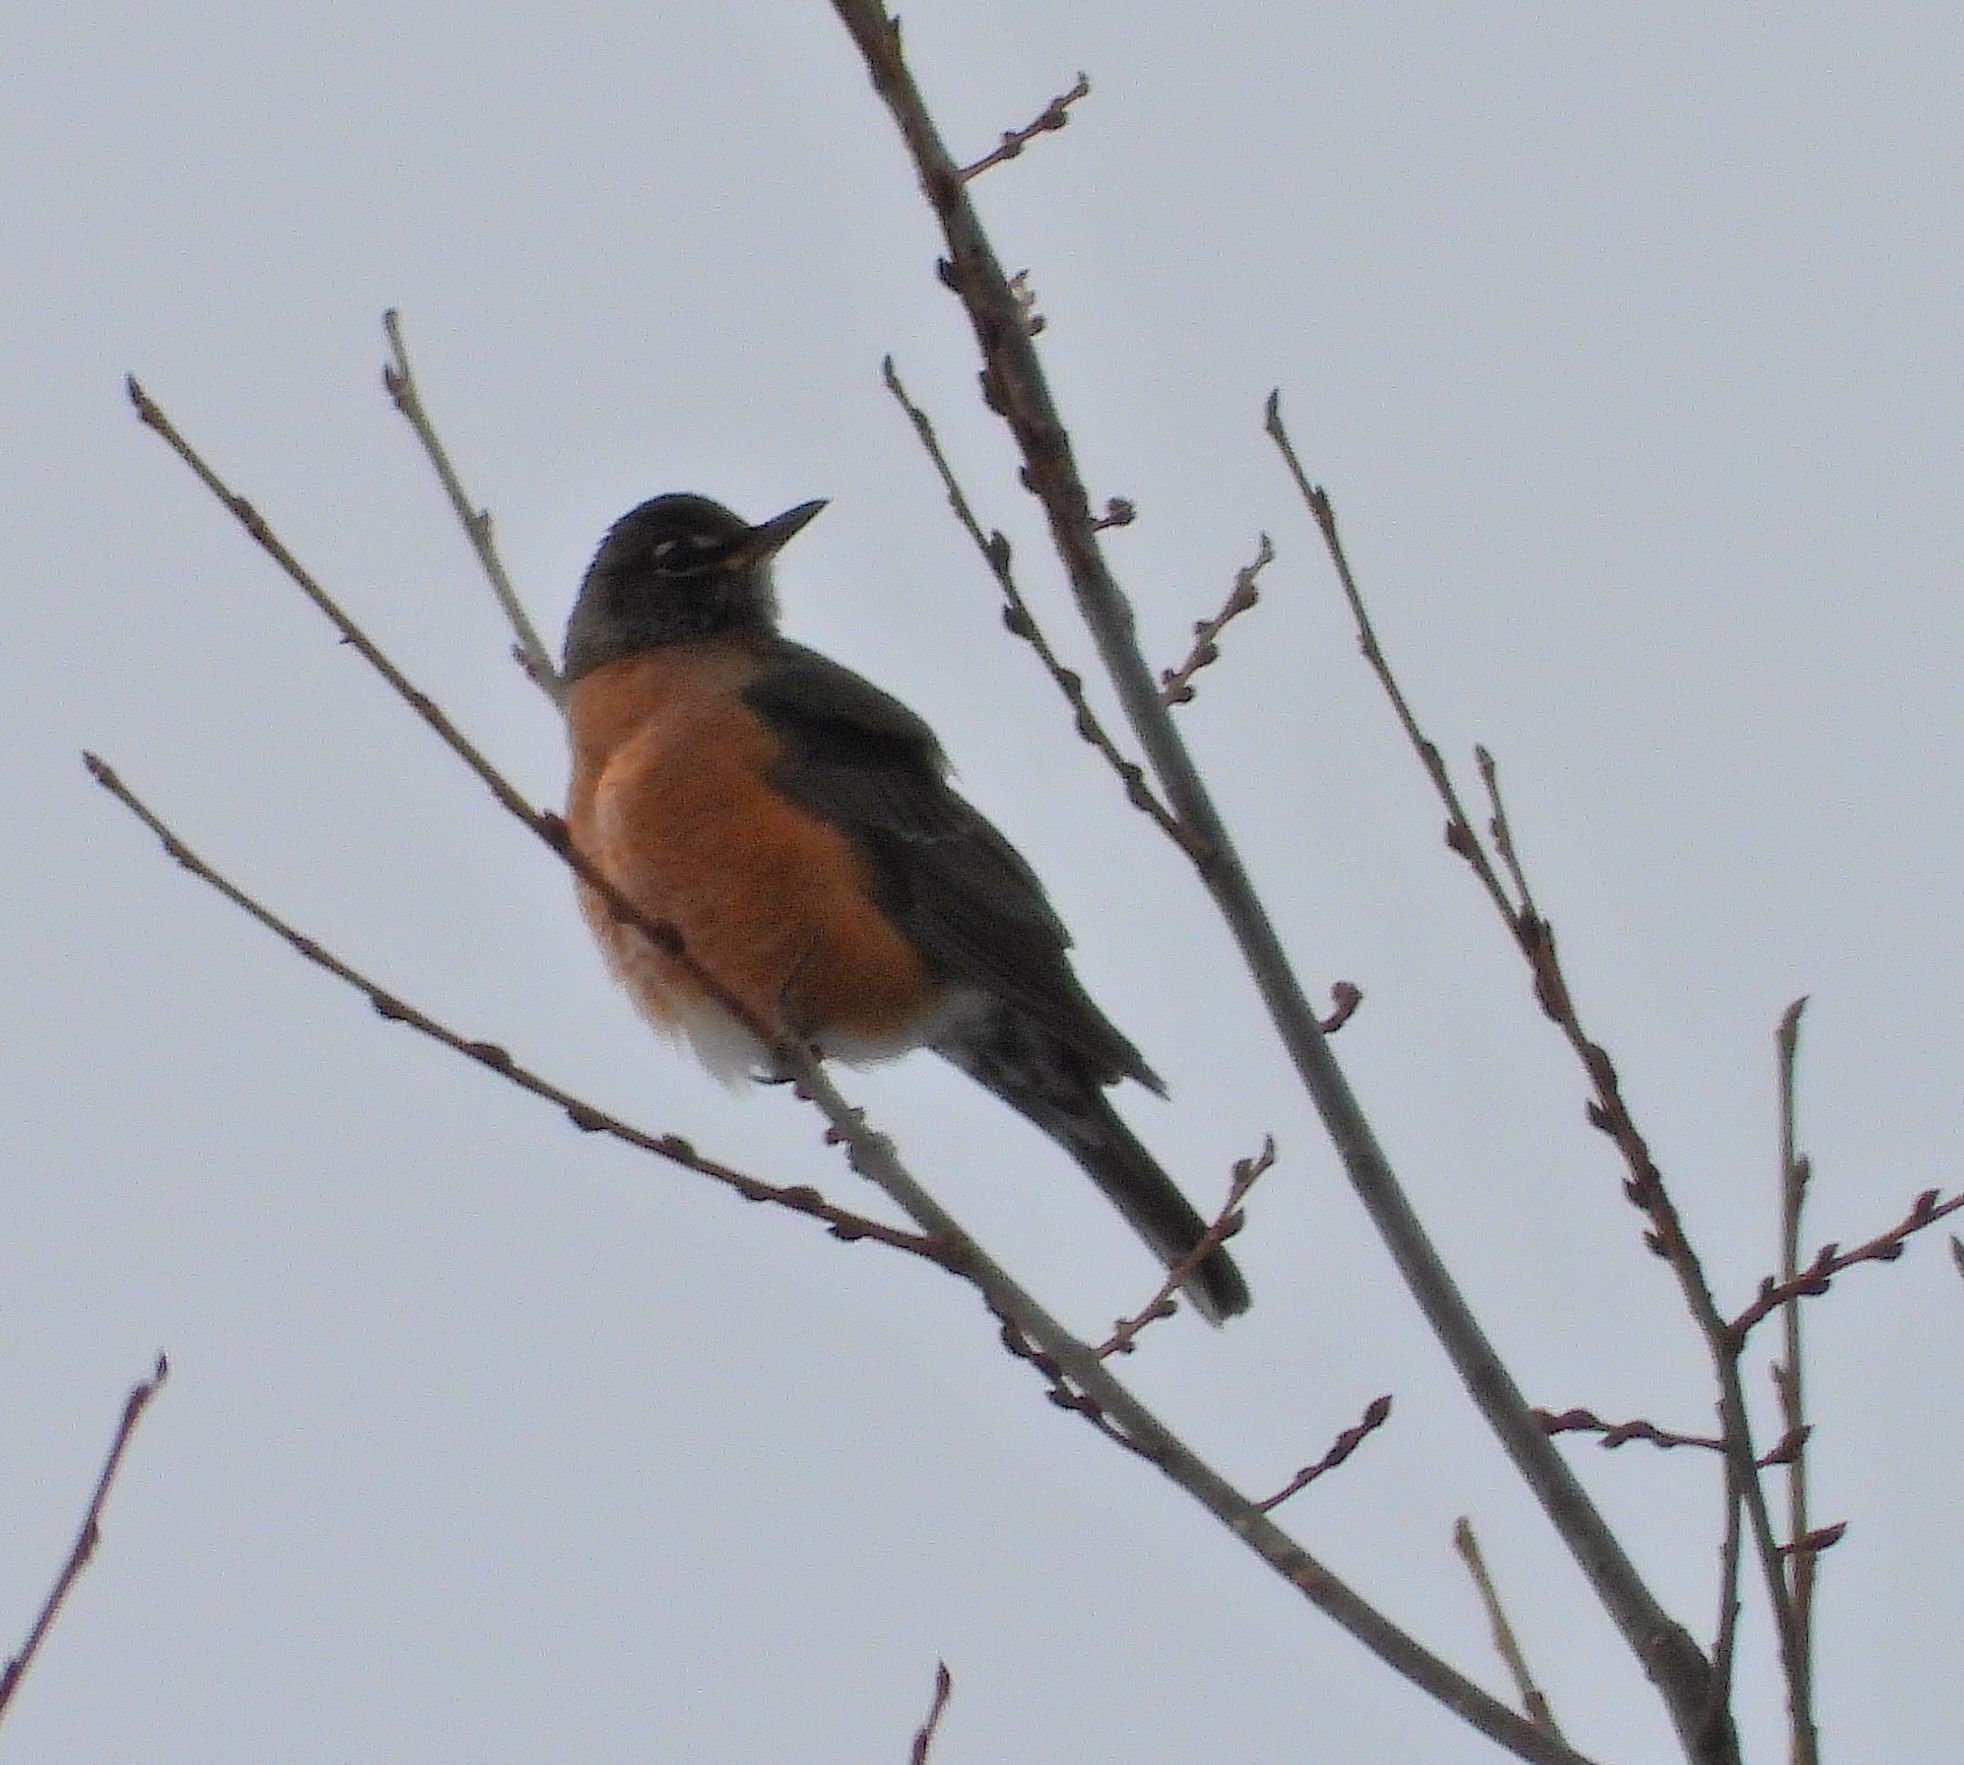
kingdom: Animalia
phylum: Chordata
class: Aves
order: Passeriformes
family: Turdidae
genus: Turdus
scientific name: Turdus migratorius
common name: American robin
